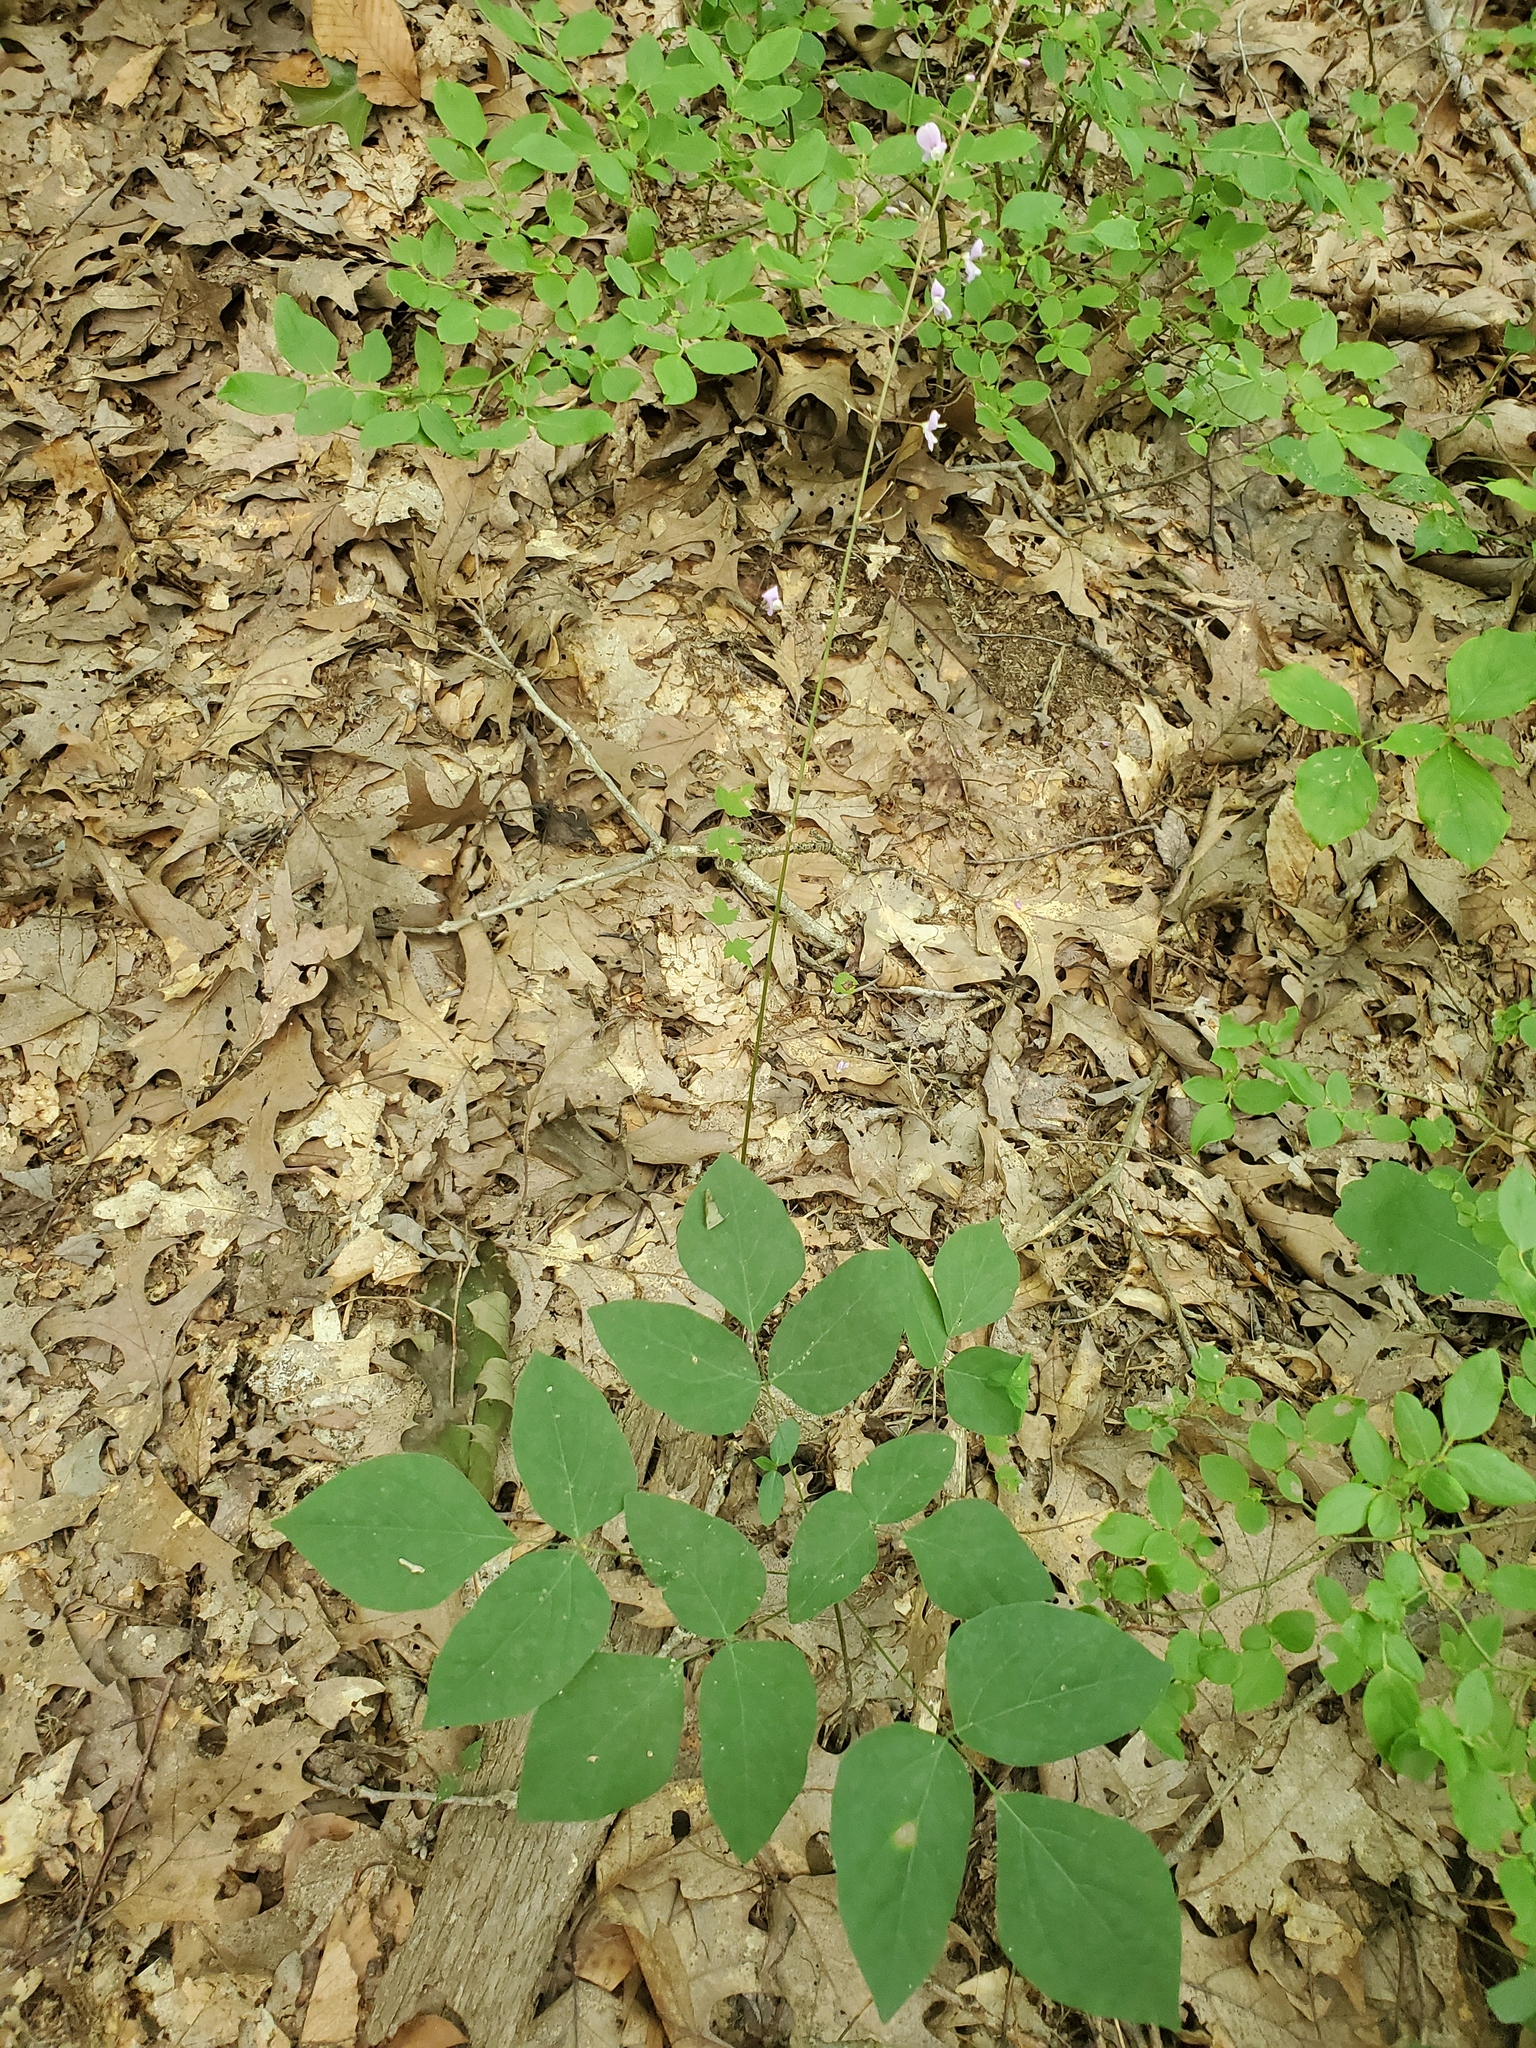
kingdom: Plantae
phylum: Tracheophyta
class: Magnoliopsida
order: Fabales
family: Fabaceae
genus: Hylodesmum
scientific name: Hylodesmum nudiflorum
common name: Bare-stemmed tick-trefoil
